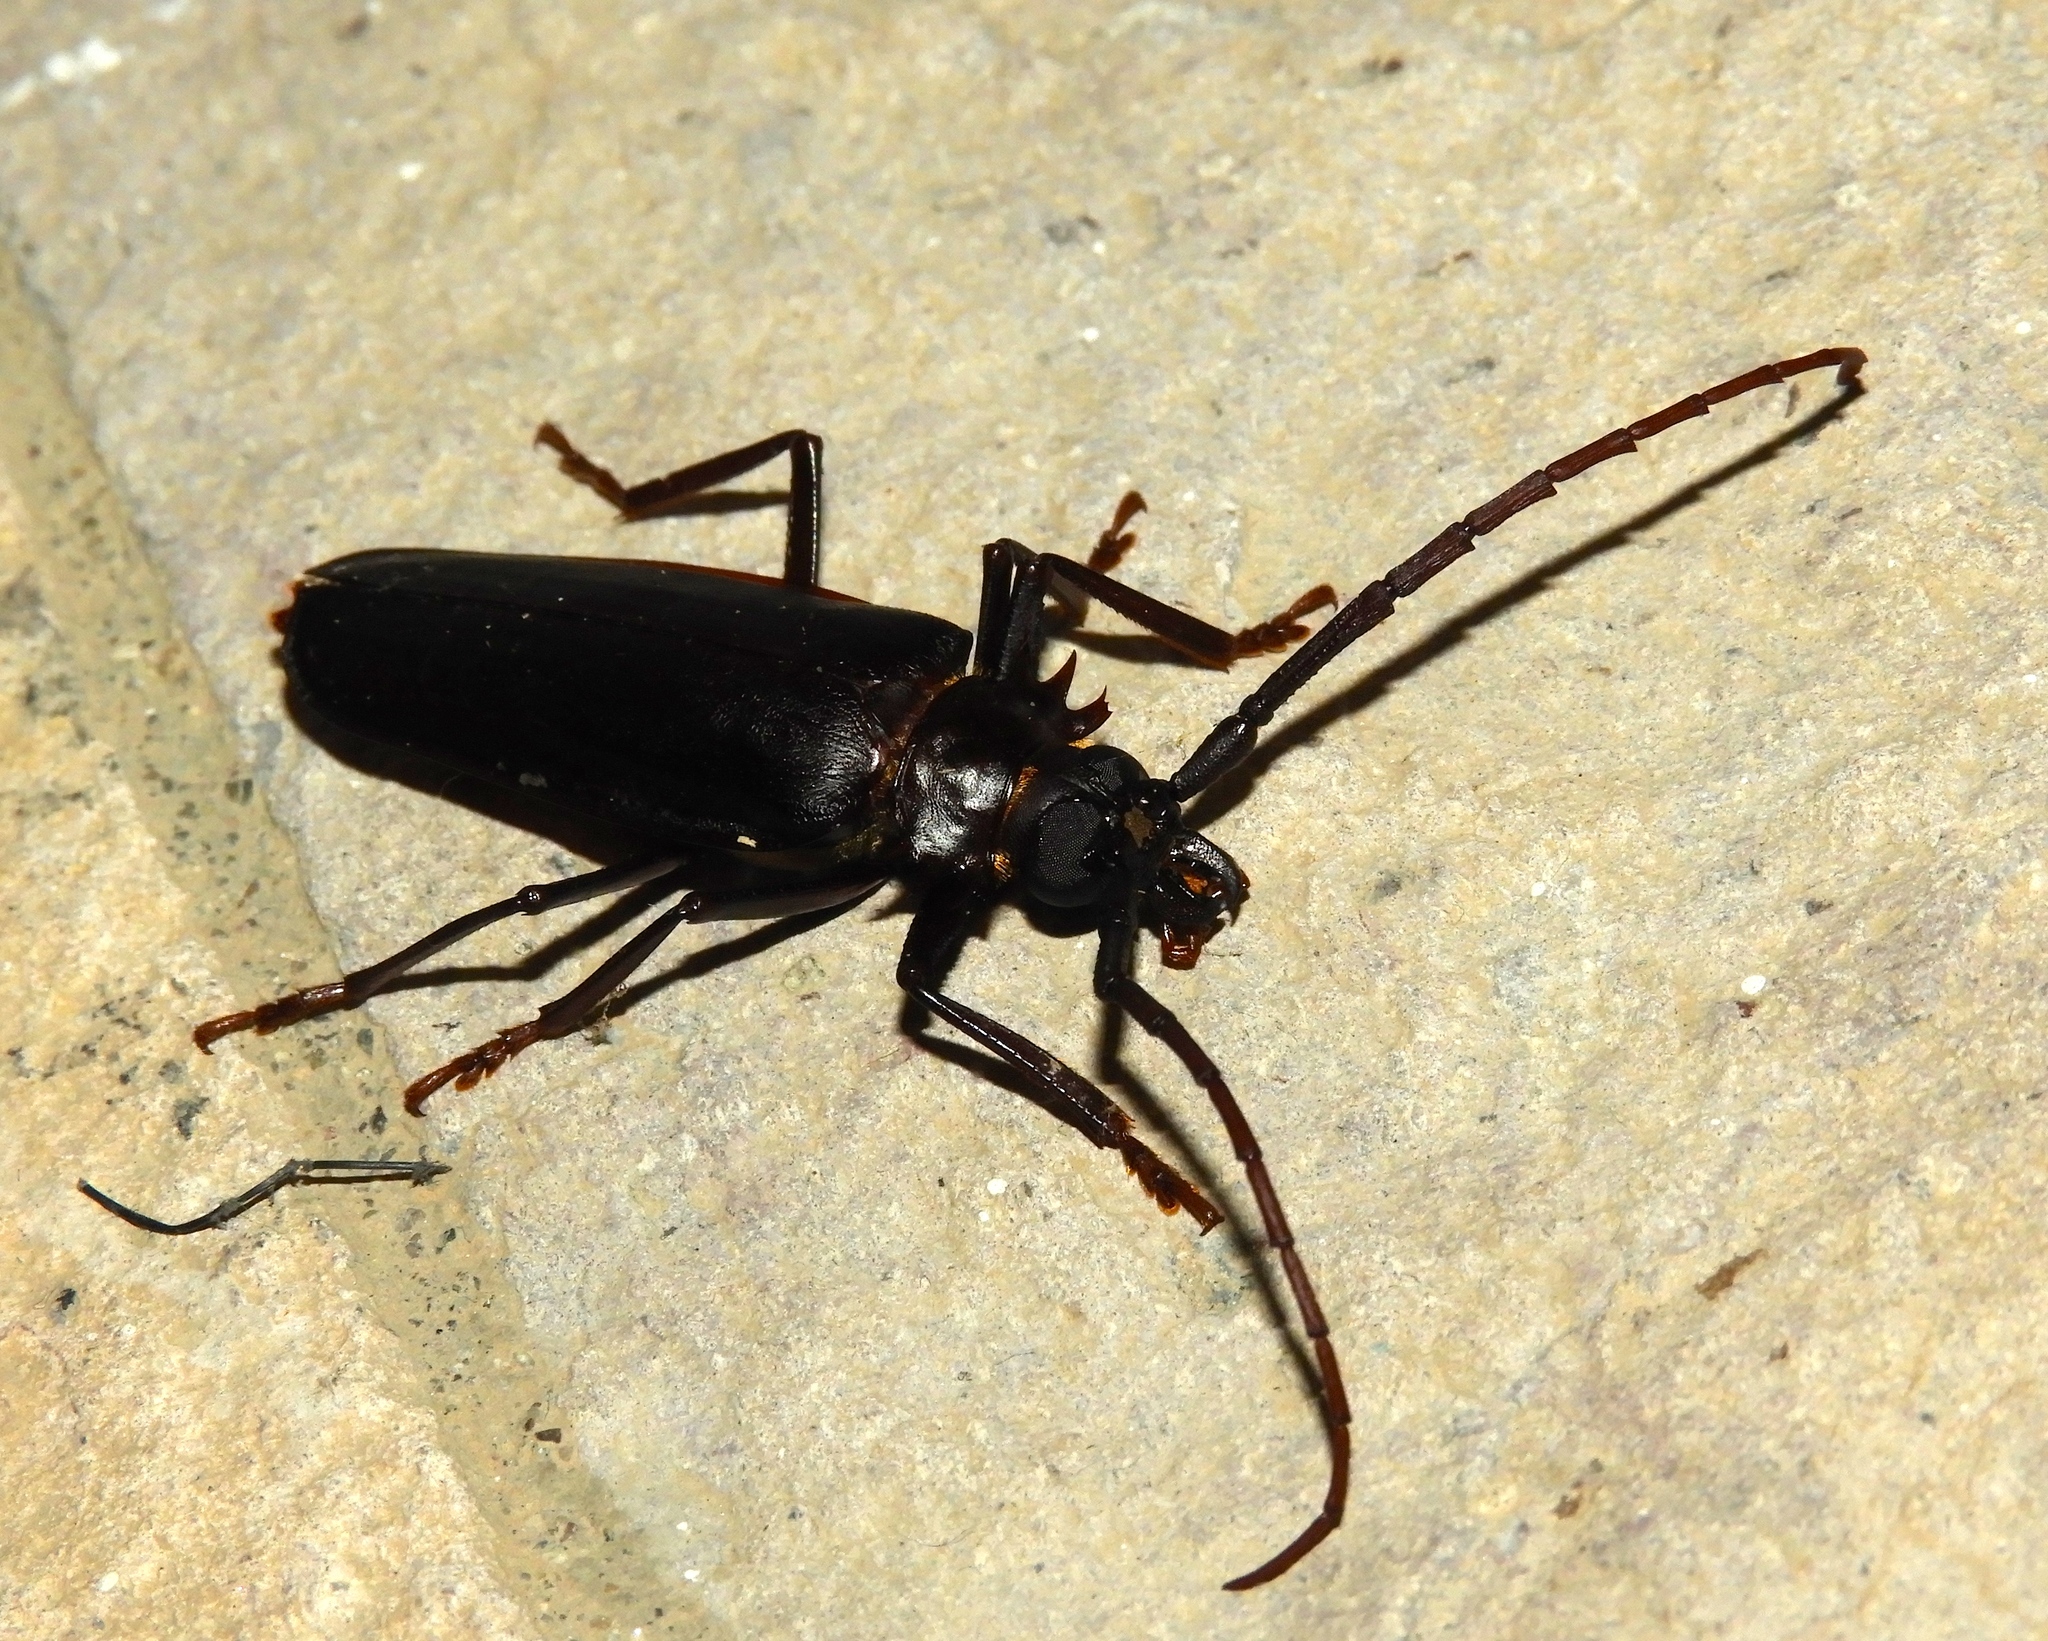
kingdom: Animalia
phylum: Arthropoda
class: Insecta
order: Coleoptera
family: Cerambycidae
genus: Derobrachus
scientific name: Derobrachus
